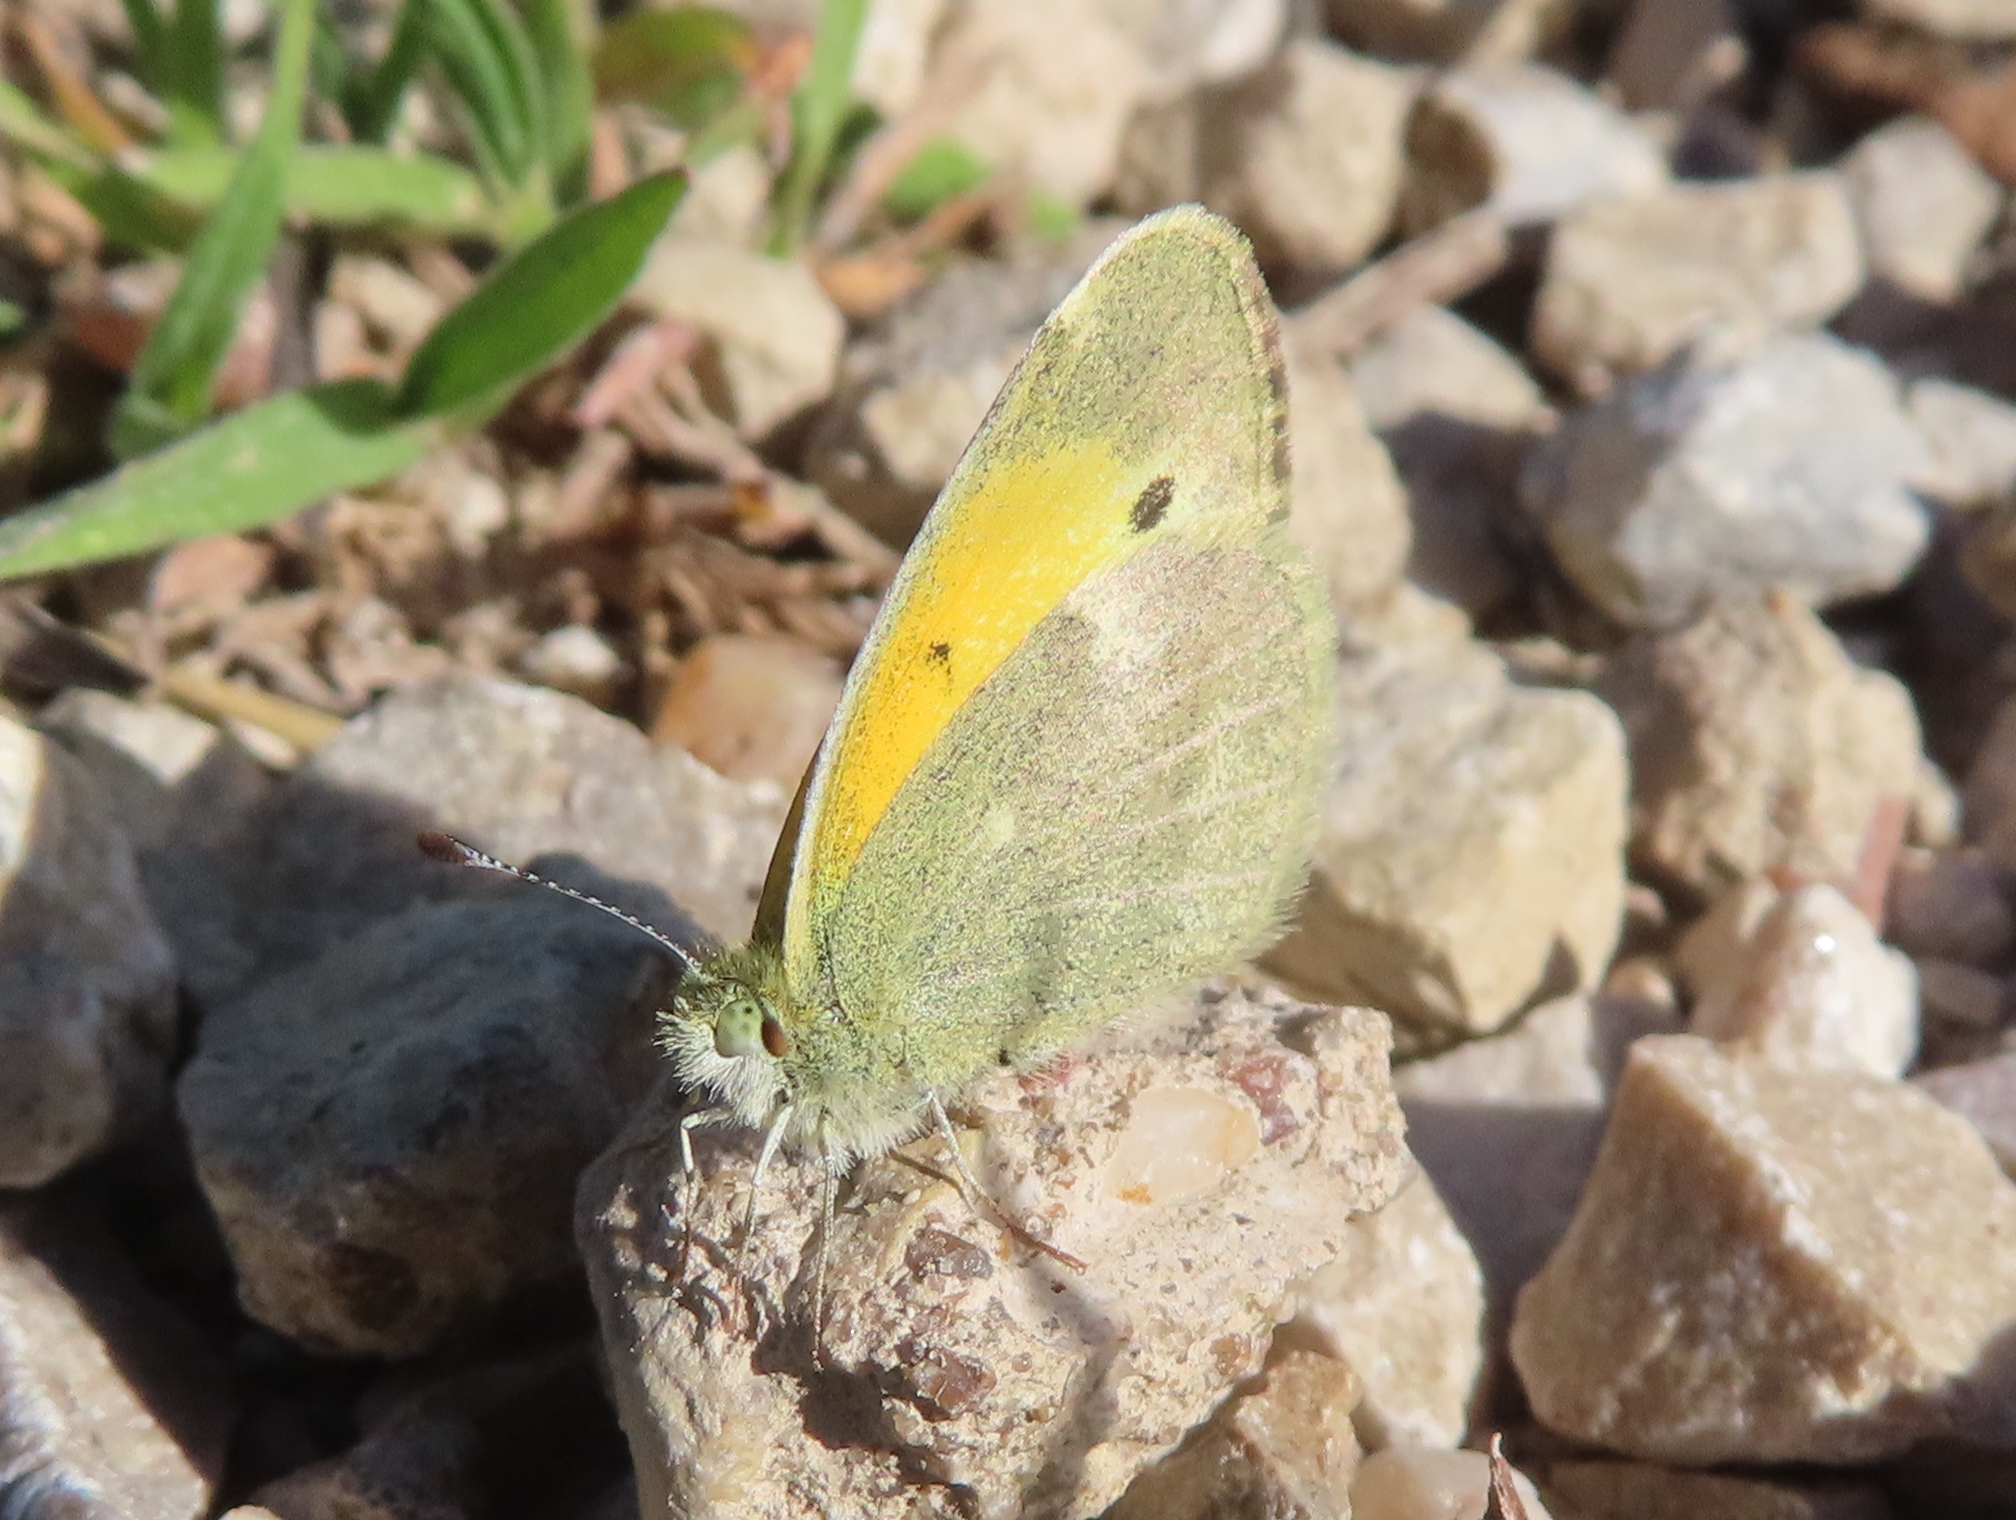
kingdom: Animalia
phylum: Arthropoda
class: Insecta
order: Lepidoptera
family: Pieridae
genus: Nathalis
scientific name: Nathalis iole
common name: Dainty sulphur
